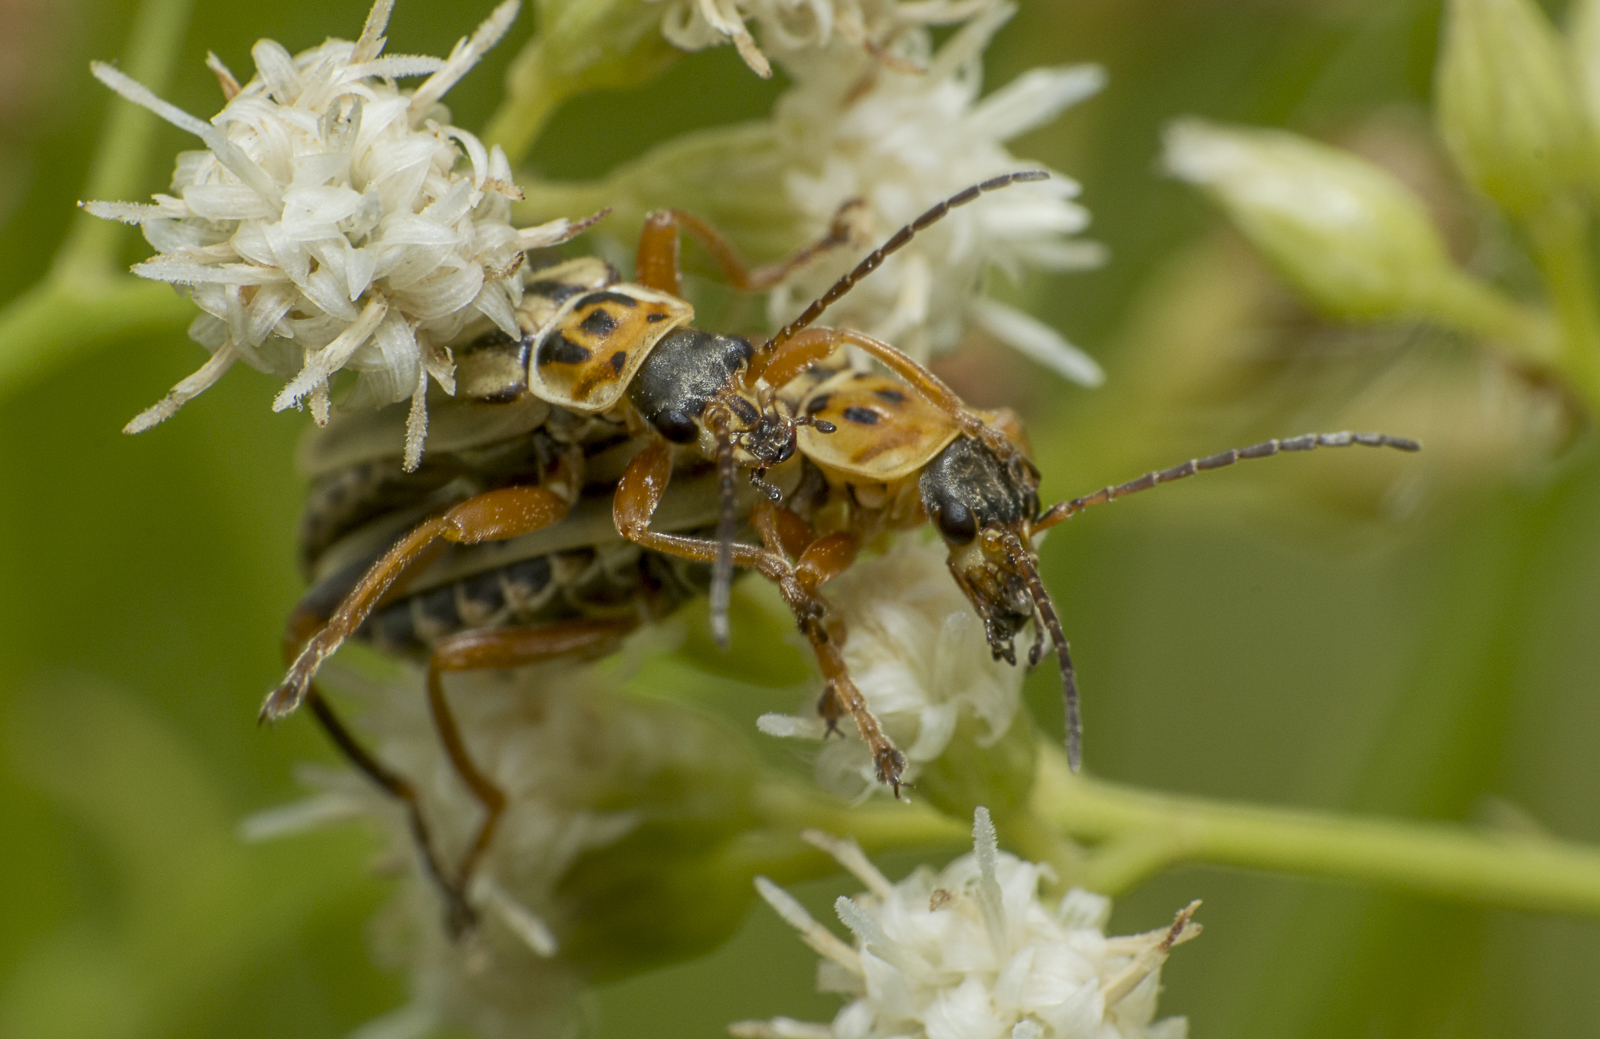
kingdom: Animalia
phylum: Arthropoda
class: Insecta
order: Coleoptera
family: Cantharidae
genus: Chauliognathus
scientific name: Chauliognathus
